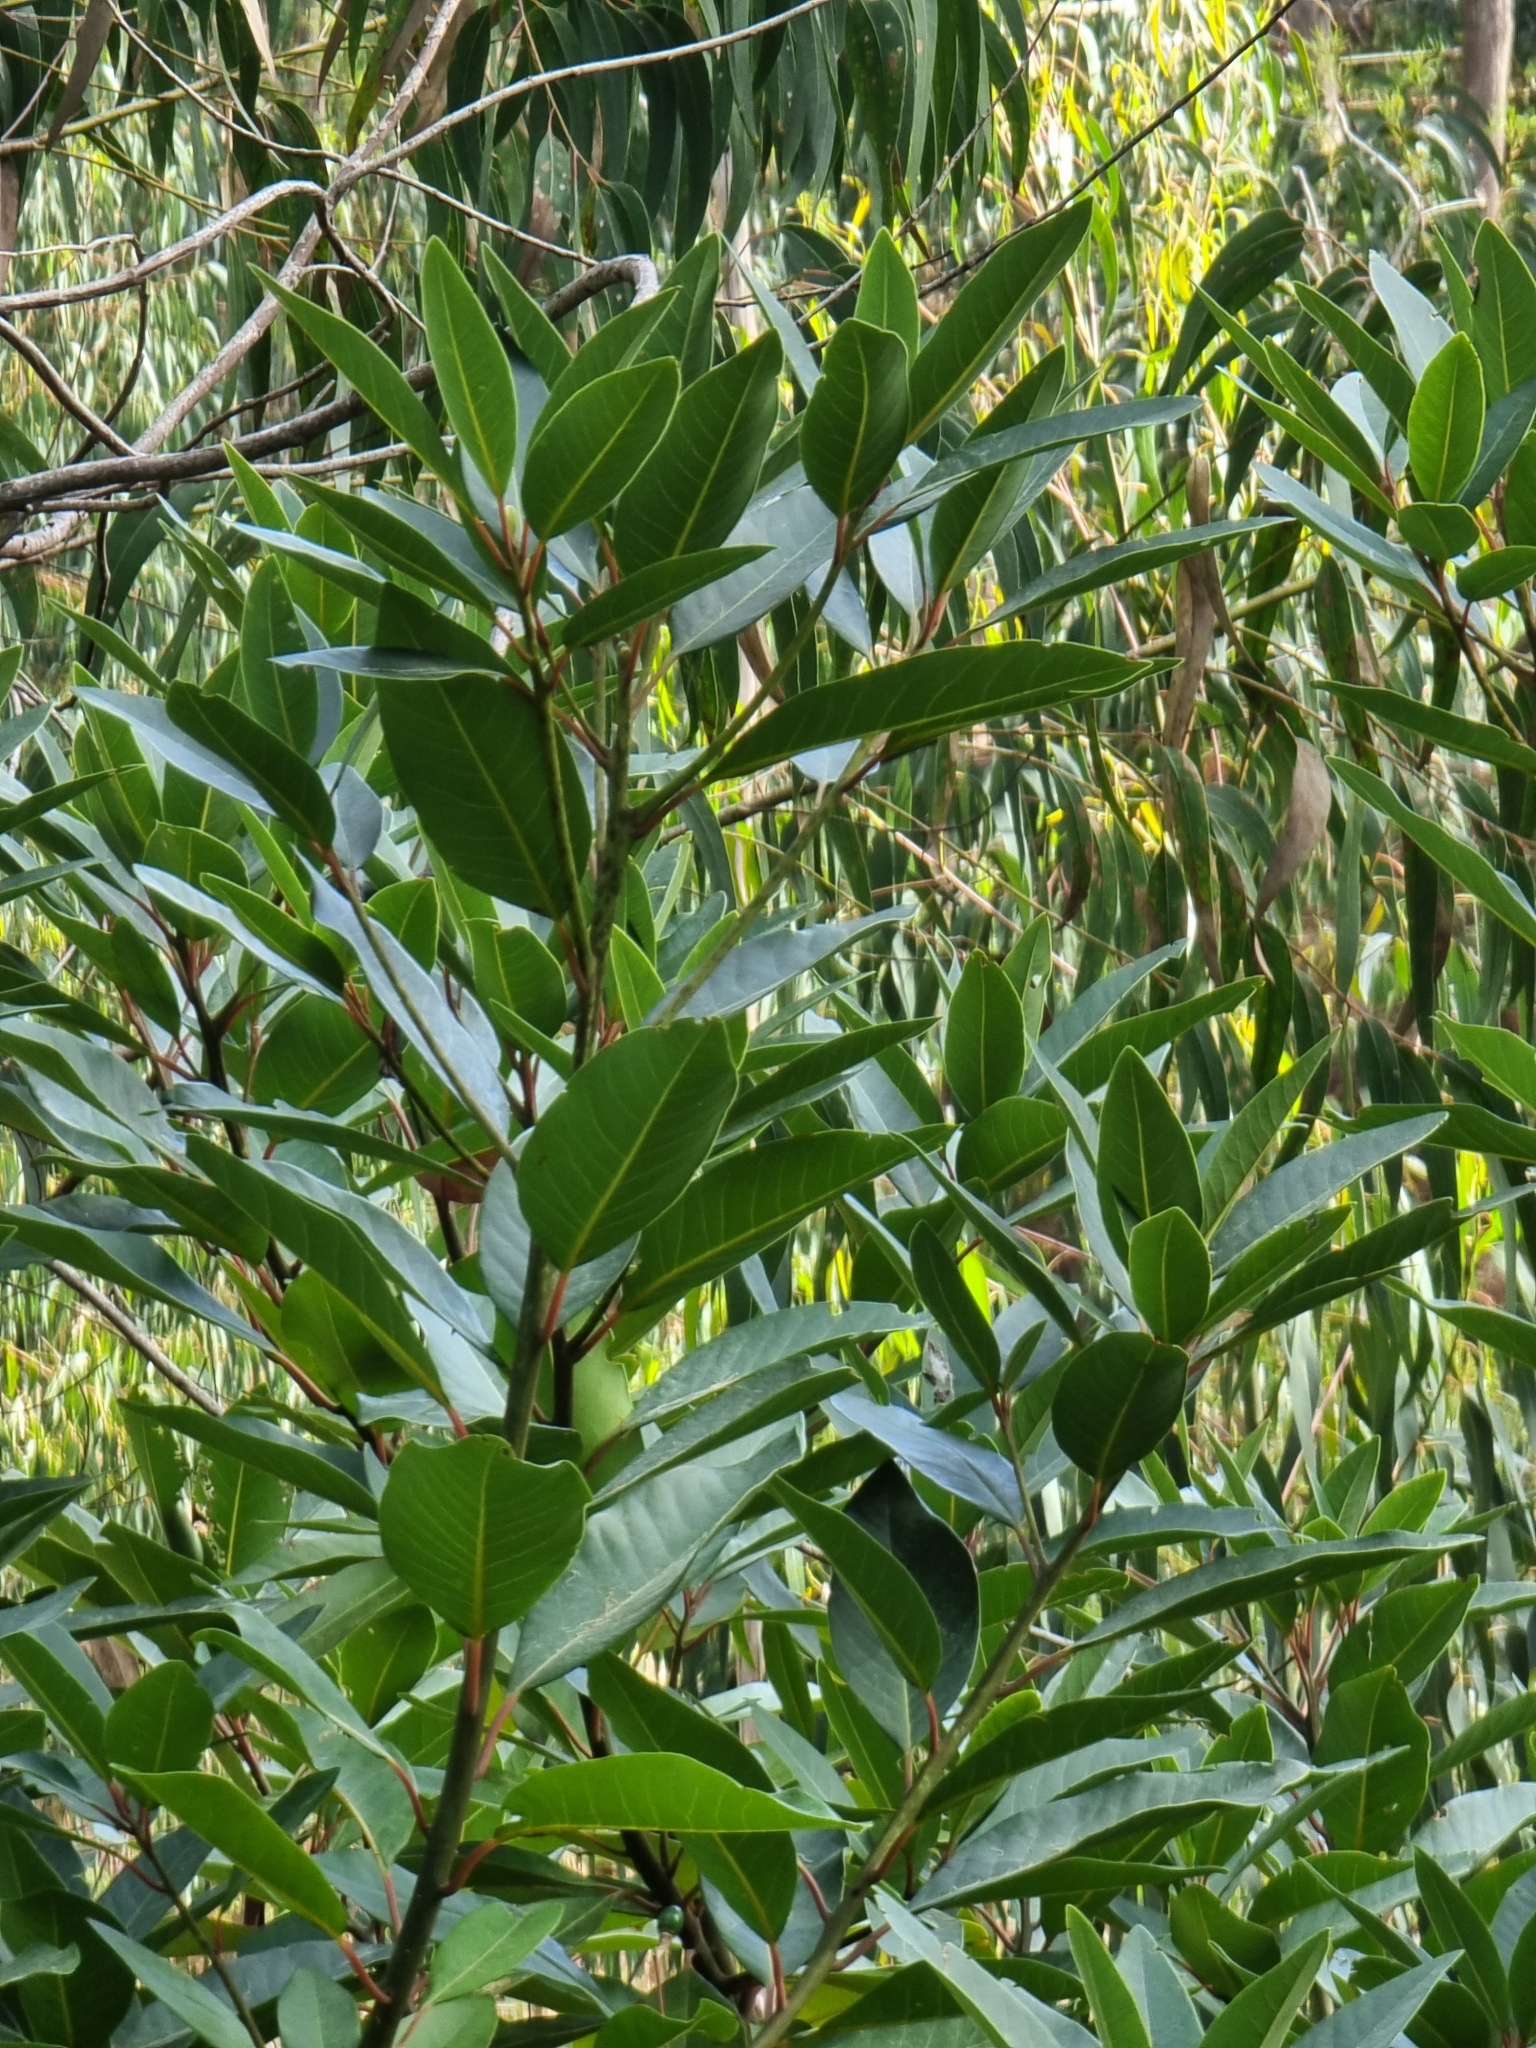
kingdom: Plantae
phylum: Tracheophyta
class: Magnoliopsida
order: Laurales
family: Lauraceae
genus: Persea
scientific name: Persea indica
